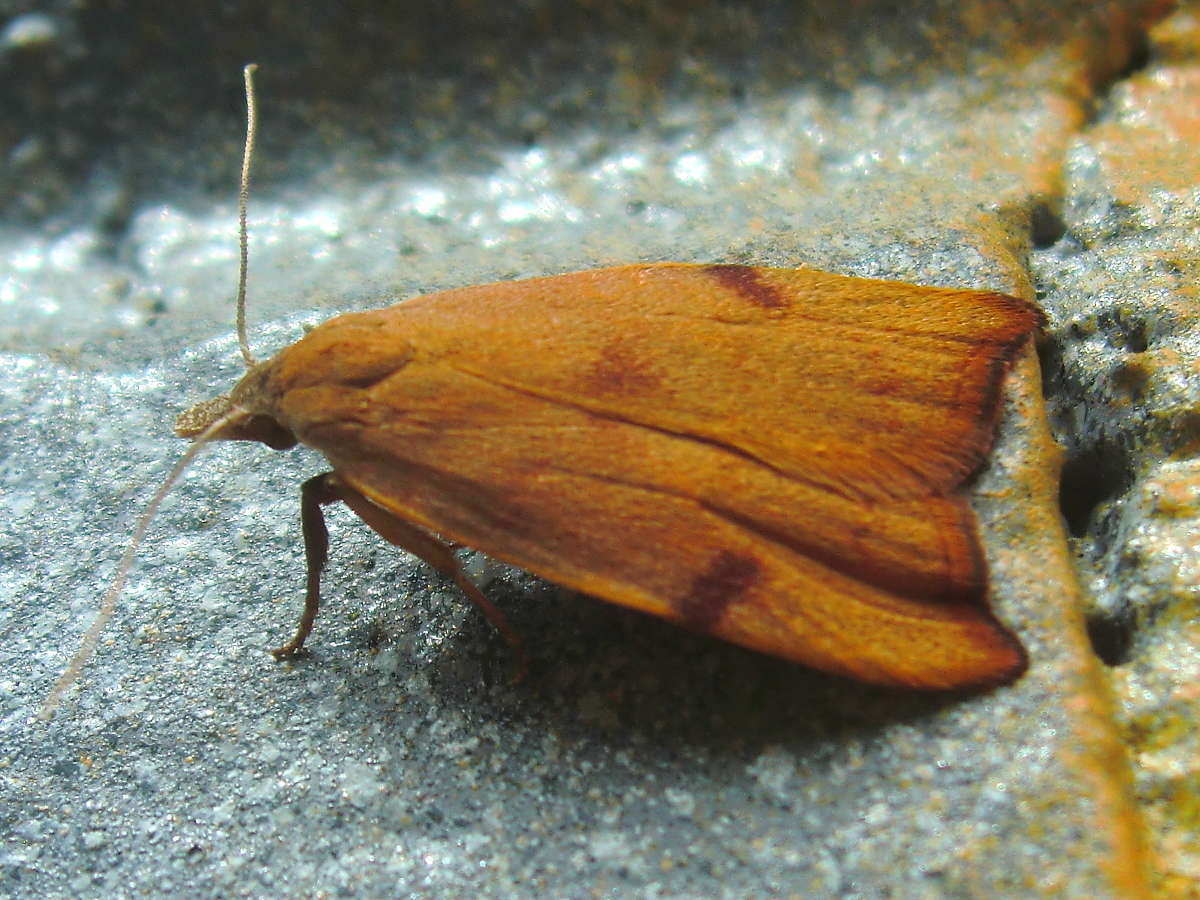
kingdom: Animalia
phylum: Arthropoda
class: Insecta
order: Lepidoptera
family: Oecophoridae
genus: Tortricopsis
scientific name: Tortricopsis uncinella
